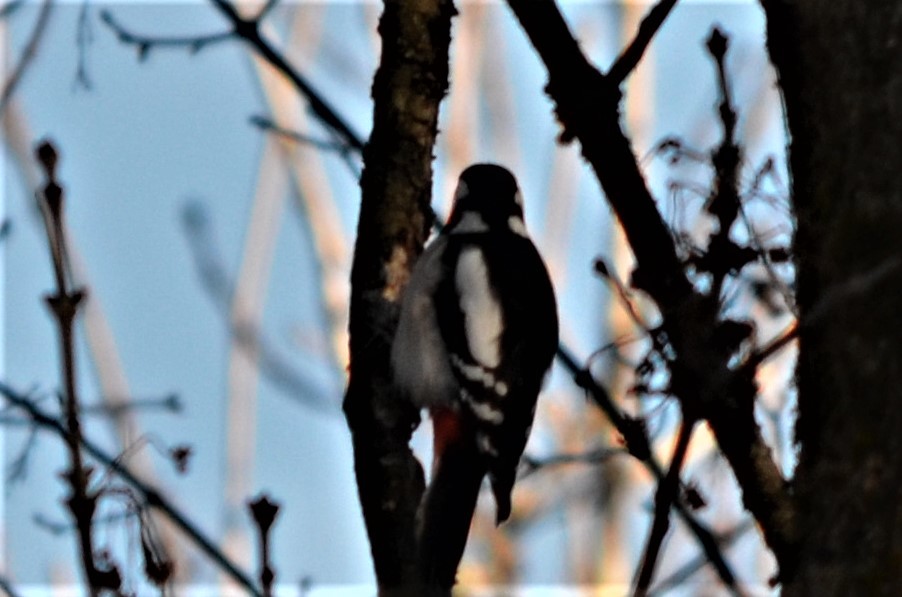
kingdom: Animalia
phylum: Chordata
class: Aves
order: Piciformes
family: Picidae
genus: Dendrocopos
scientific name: Dendrocopos major
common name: Great spotted woodpecker
